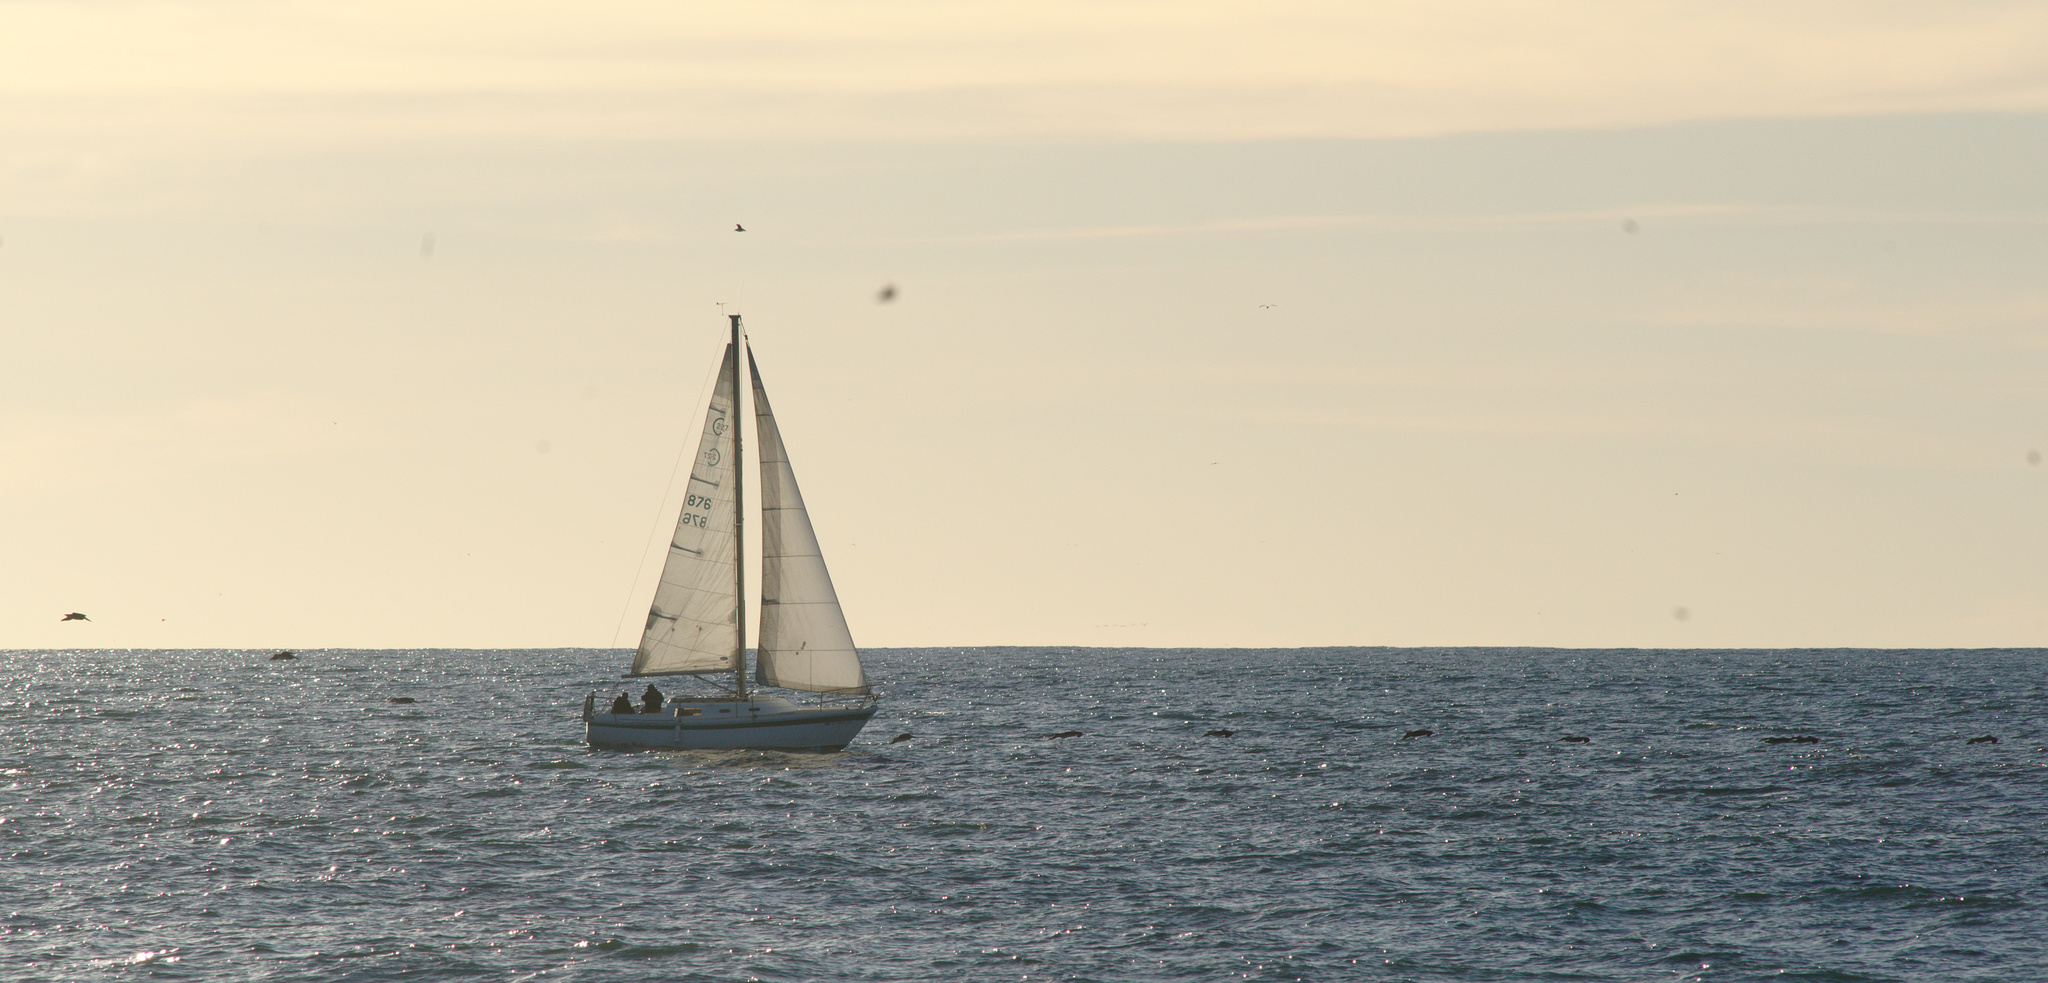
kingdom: Animalia
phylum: Chordata
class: Aves
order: Pelecaniformes
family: Pelecanidae
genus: Pelecanus
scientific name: Pelecanus occidentalis
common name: Brown pelican
